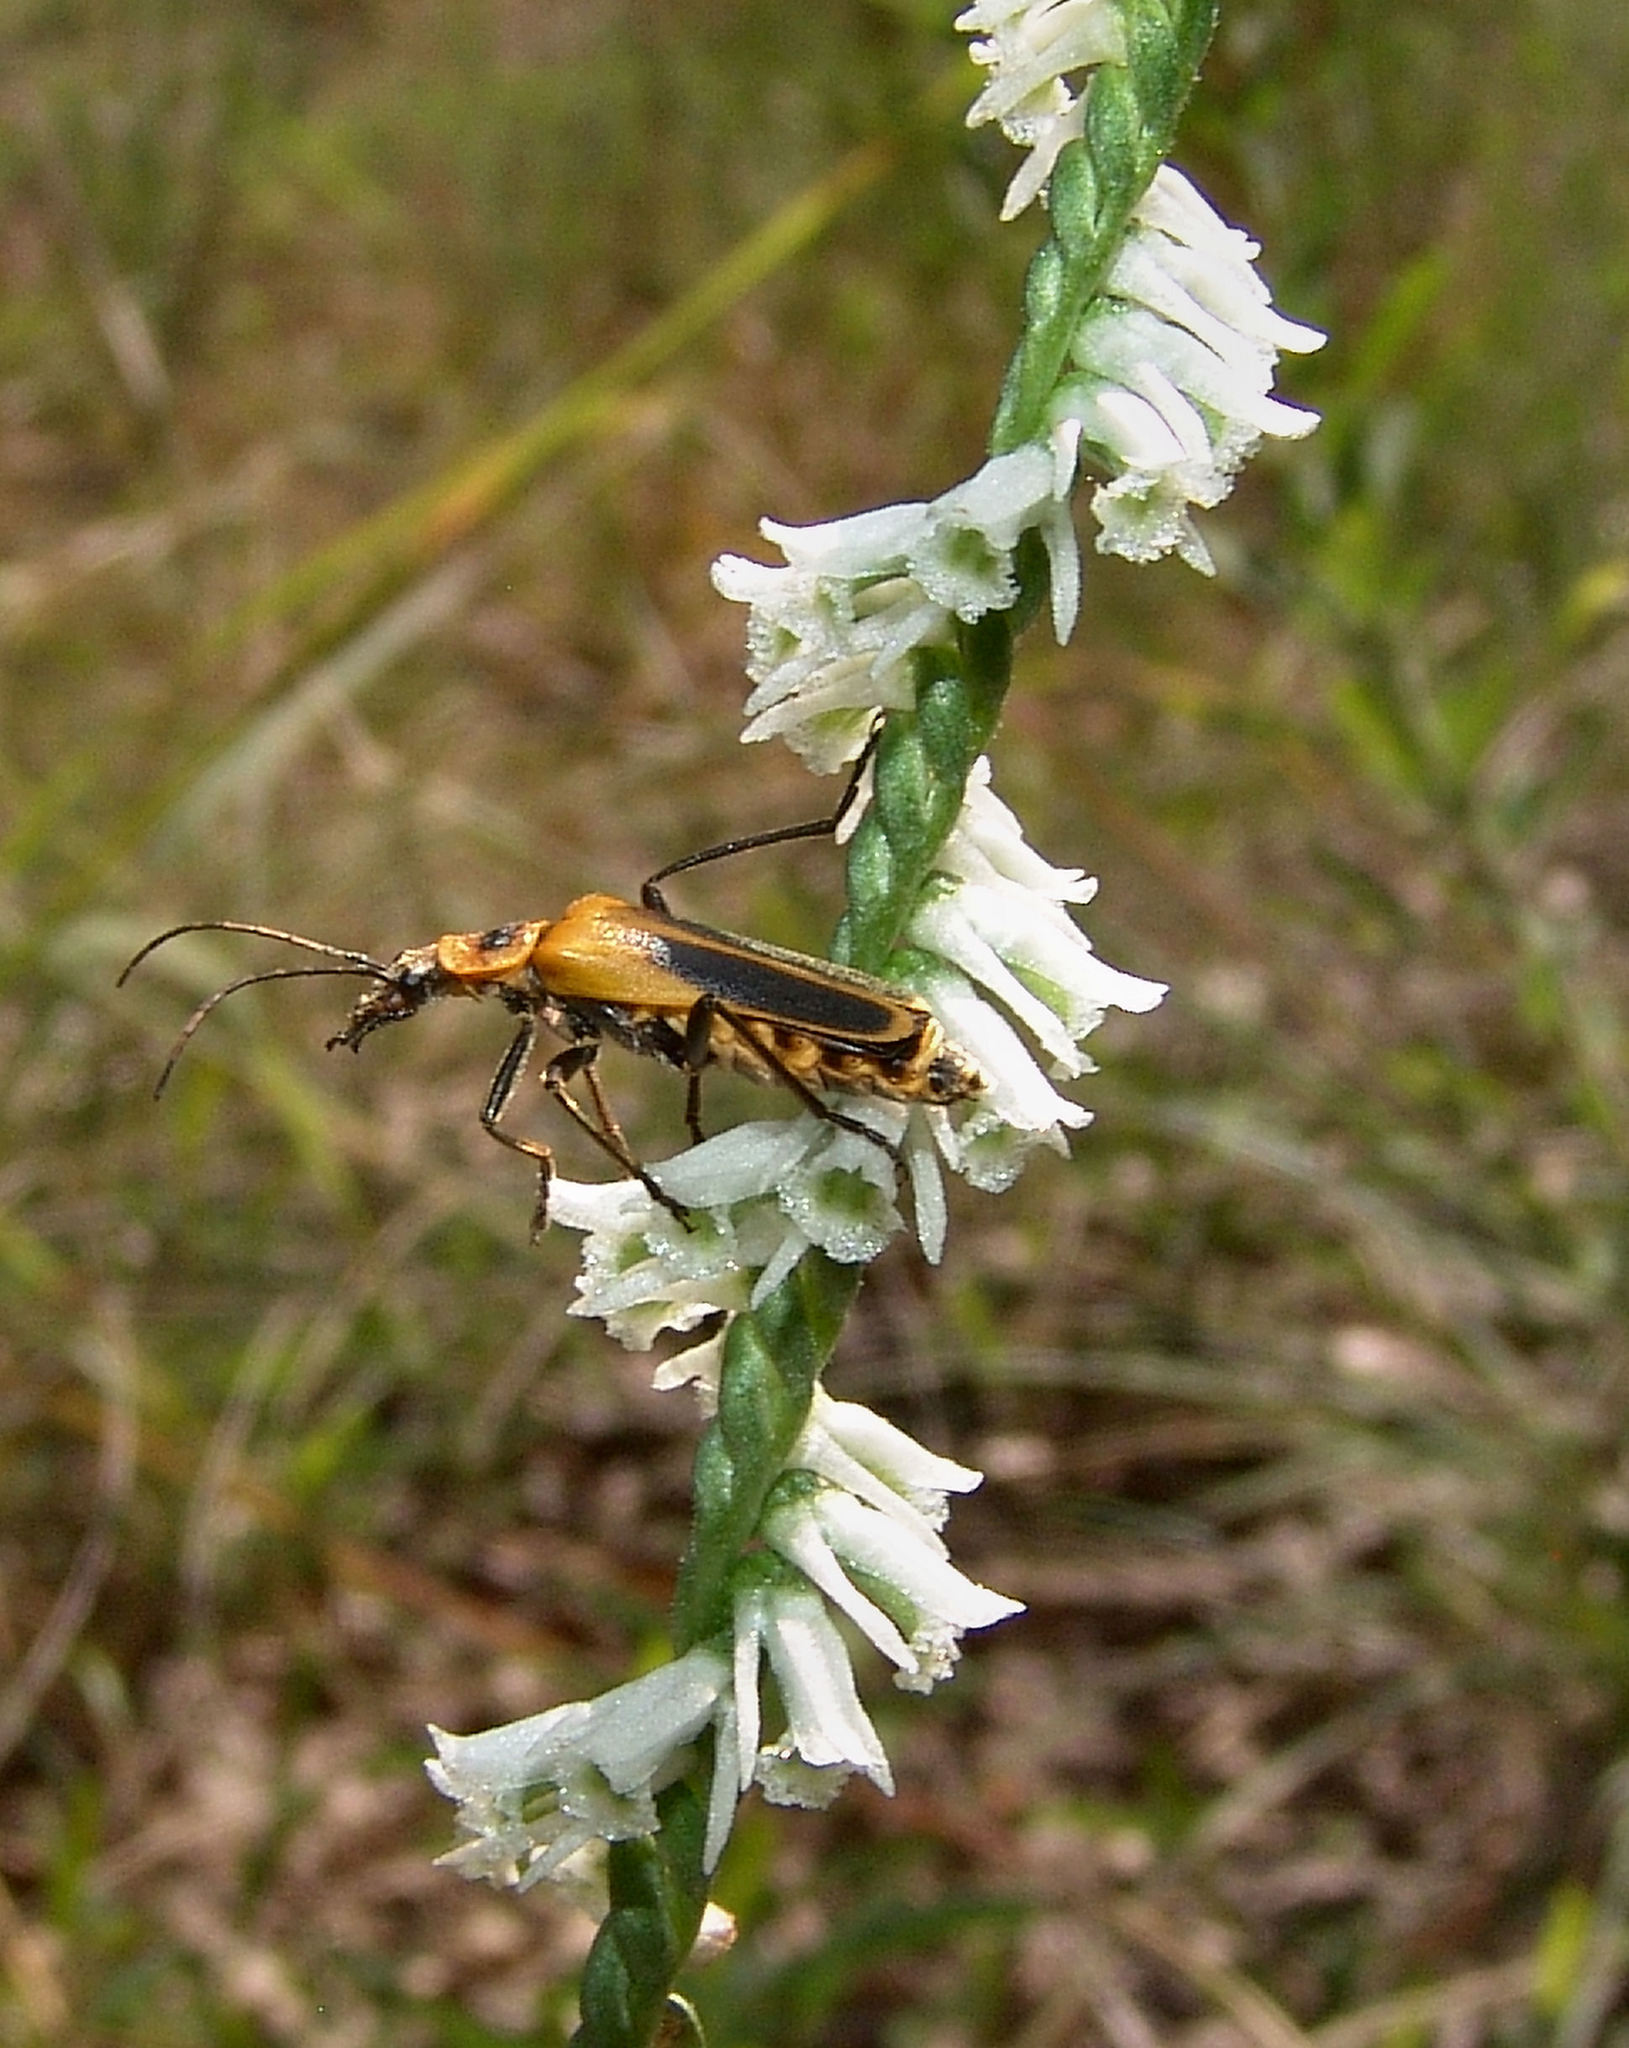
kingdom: Animalia
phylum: Arthropoda
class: Insecta
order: Coleoptera
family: Cantharidae
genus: Chauliognathus
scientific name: Chauliognathus pensylvanicus
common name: Goldenrod soldier beetle
